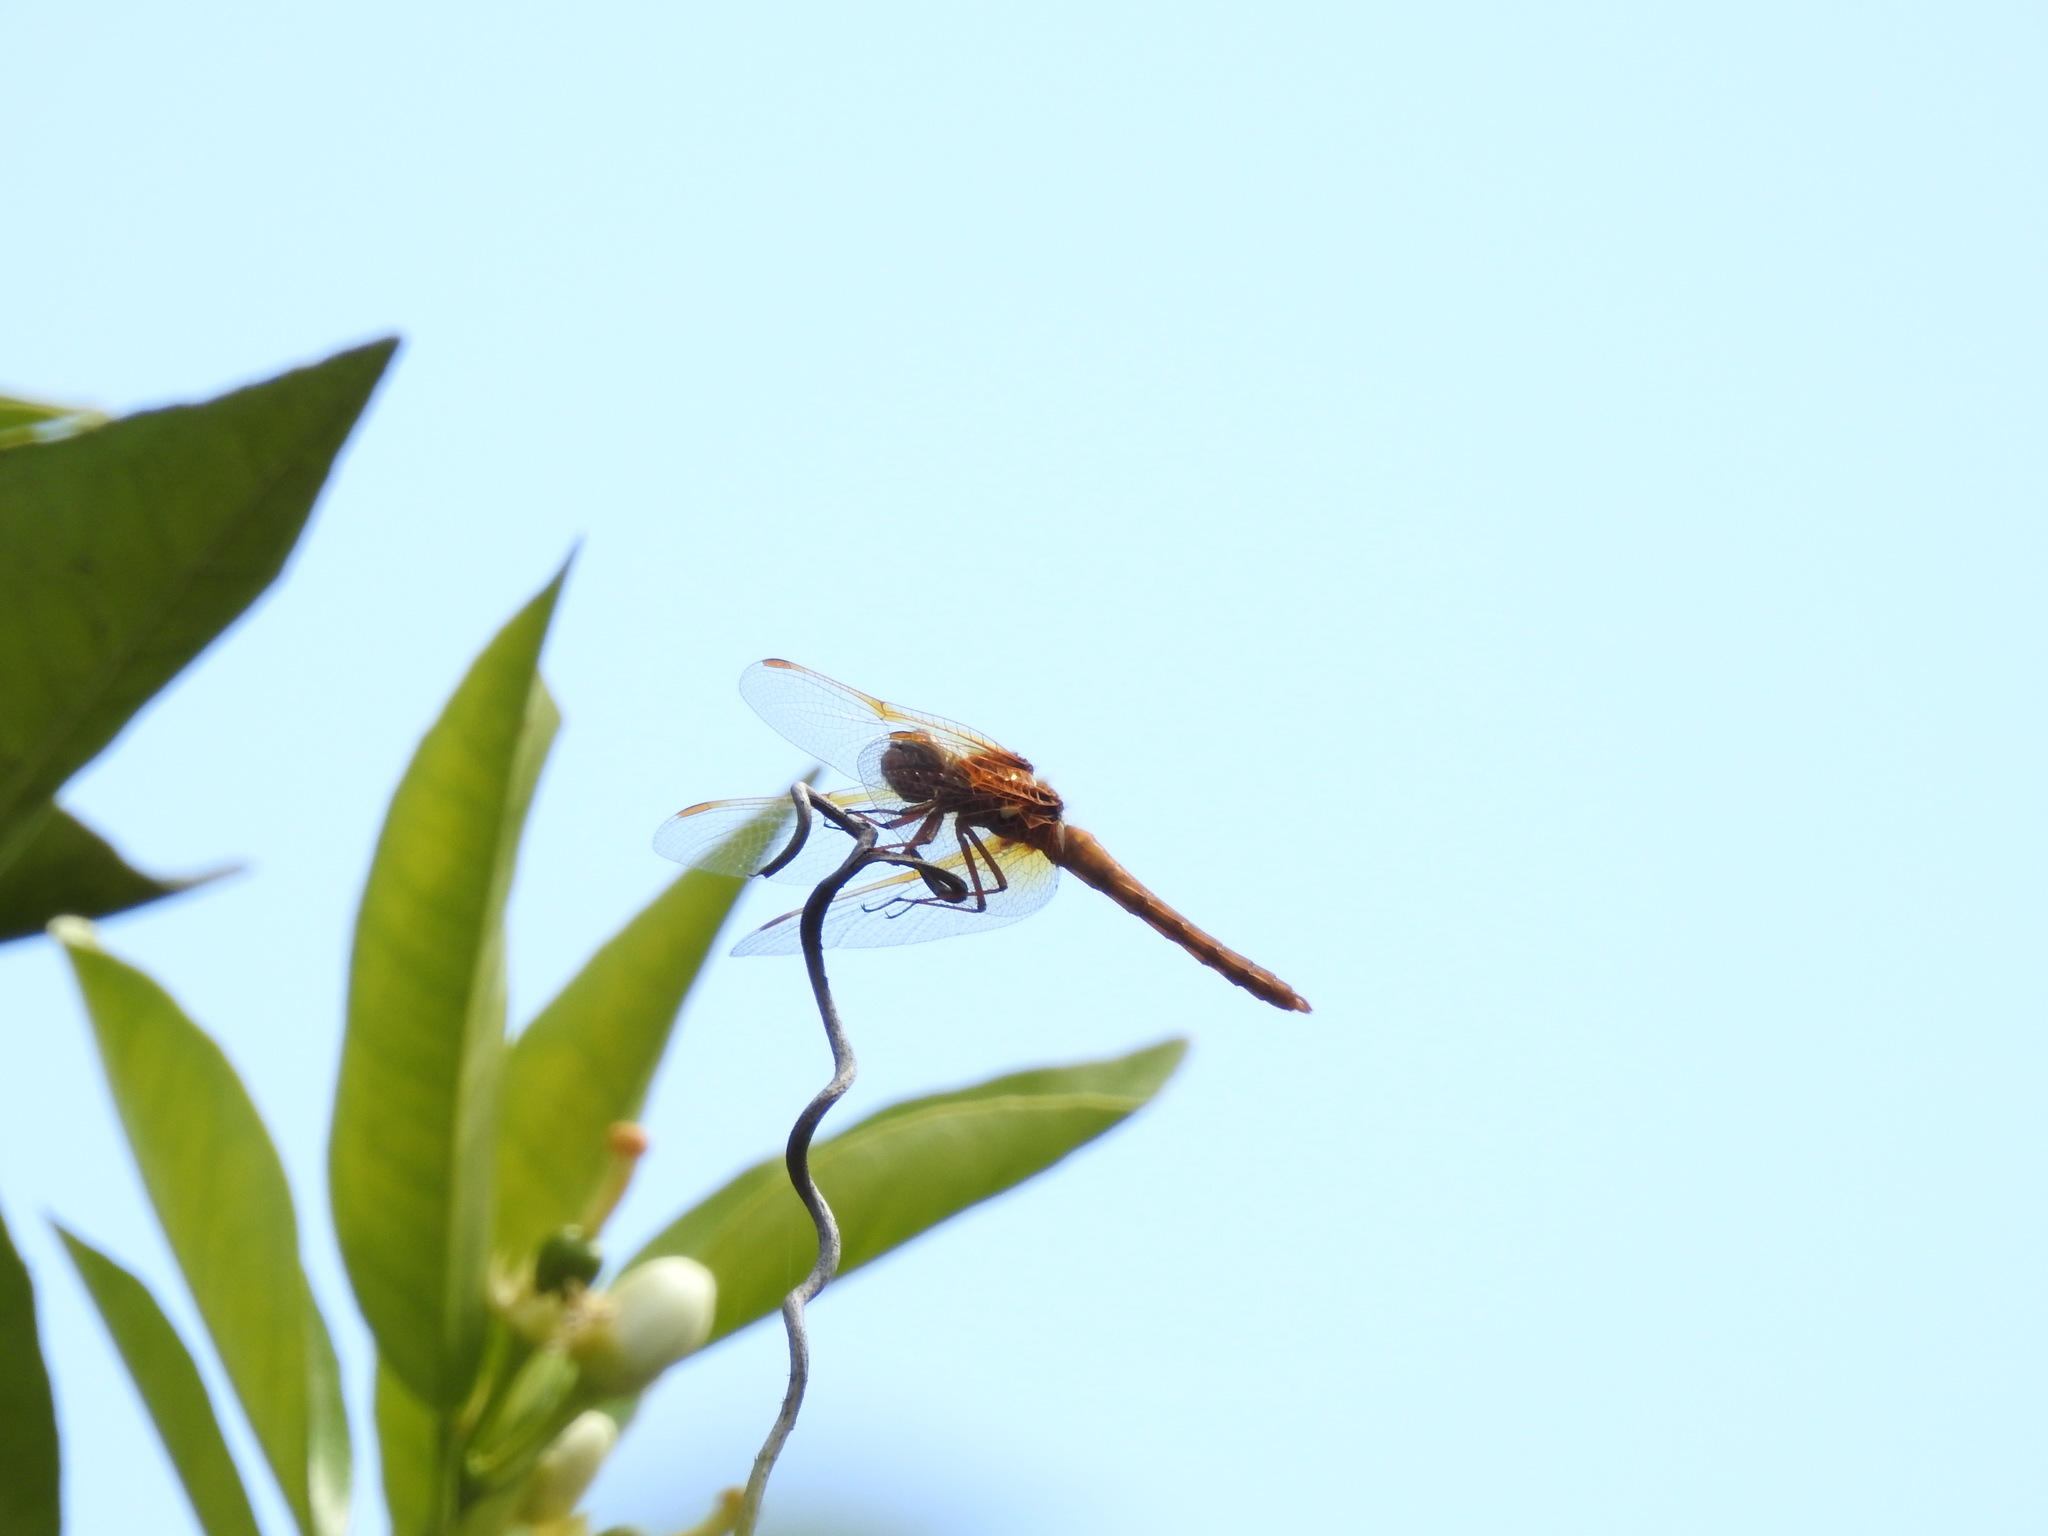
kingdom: Animalia
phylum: Arthropoda
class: Insecta
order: Odonata
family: Libellulidae
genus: Sympetrum
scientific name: Sympetrum illotum
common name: Cardinal meadowhawk
